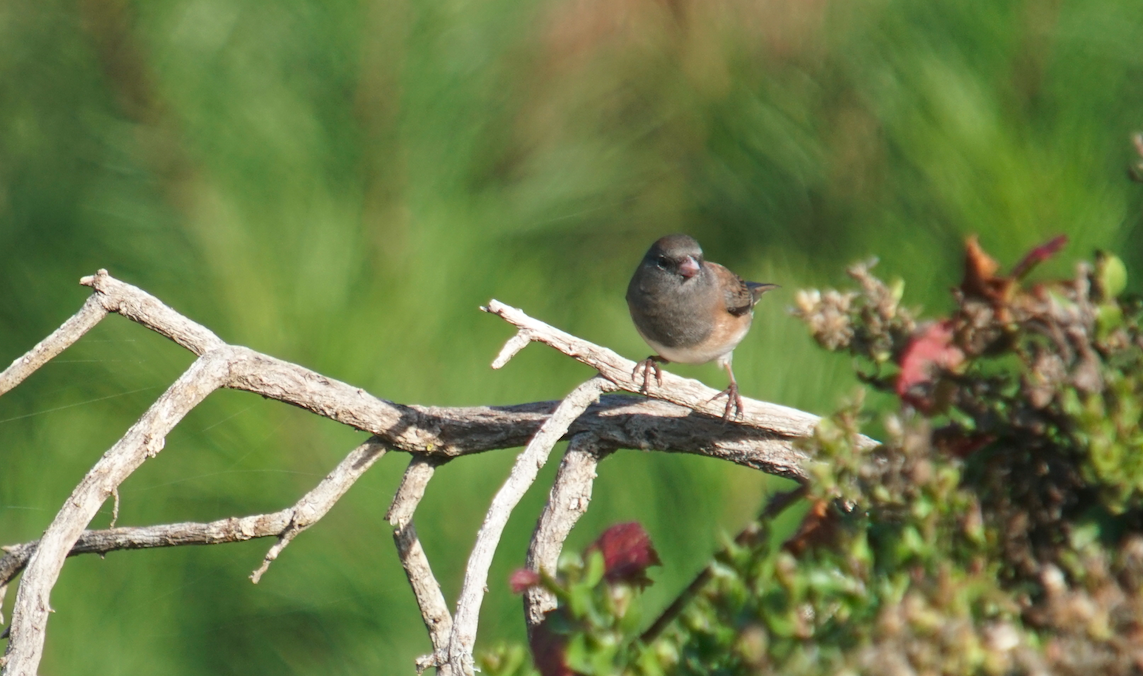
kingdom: Animalia
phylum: Chordata
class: Aves
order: Passeriformes
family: Passerellidae
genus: Junco
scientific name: Junco hyemalis
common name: Dark-eyed junco
